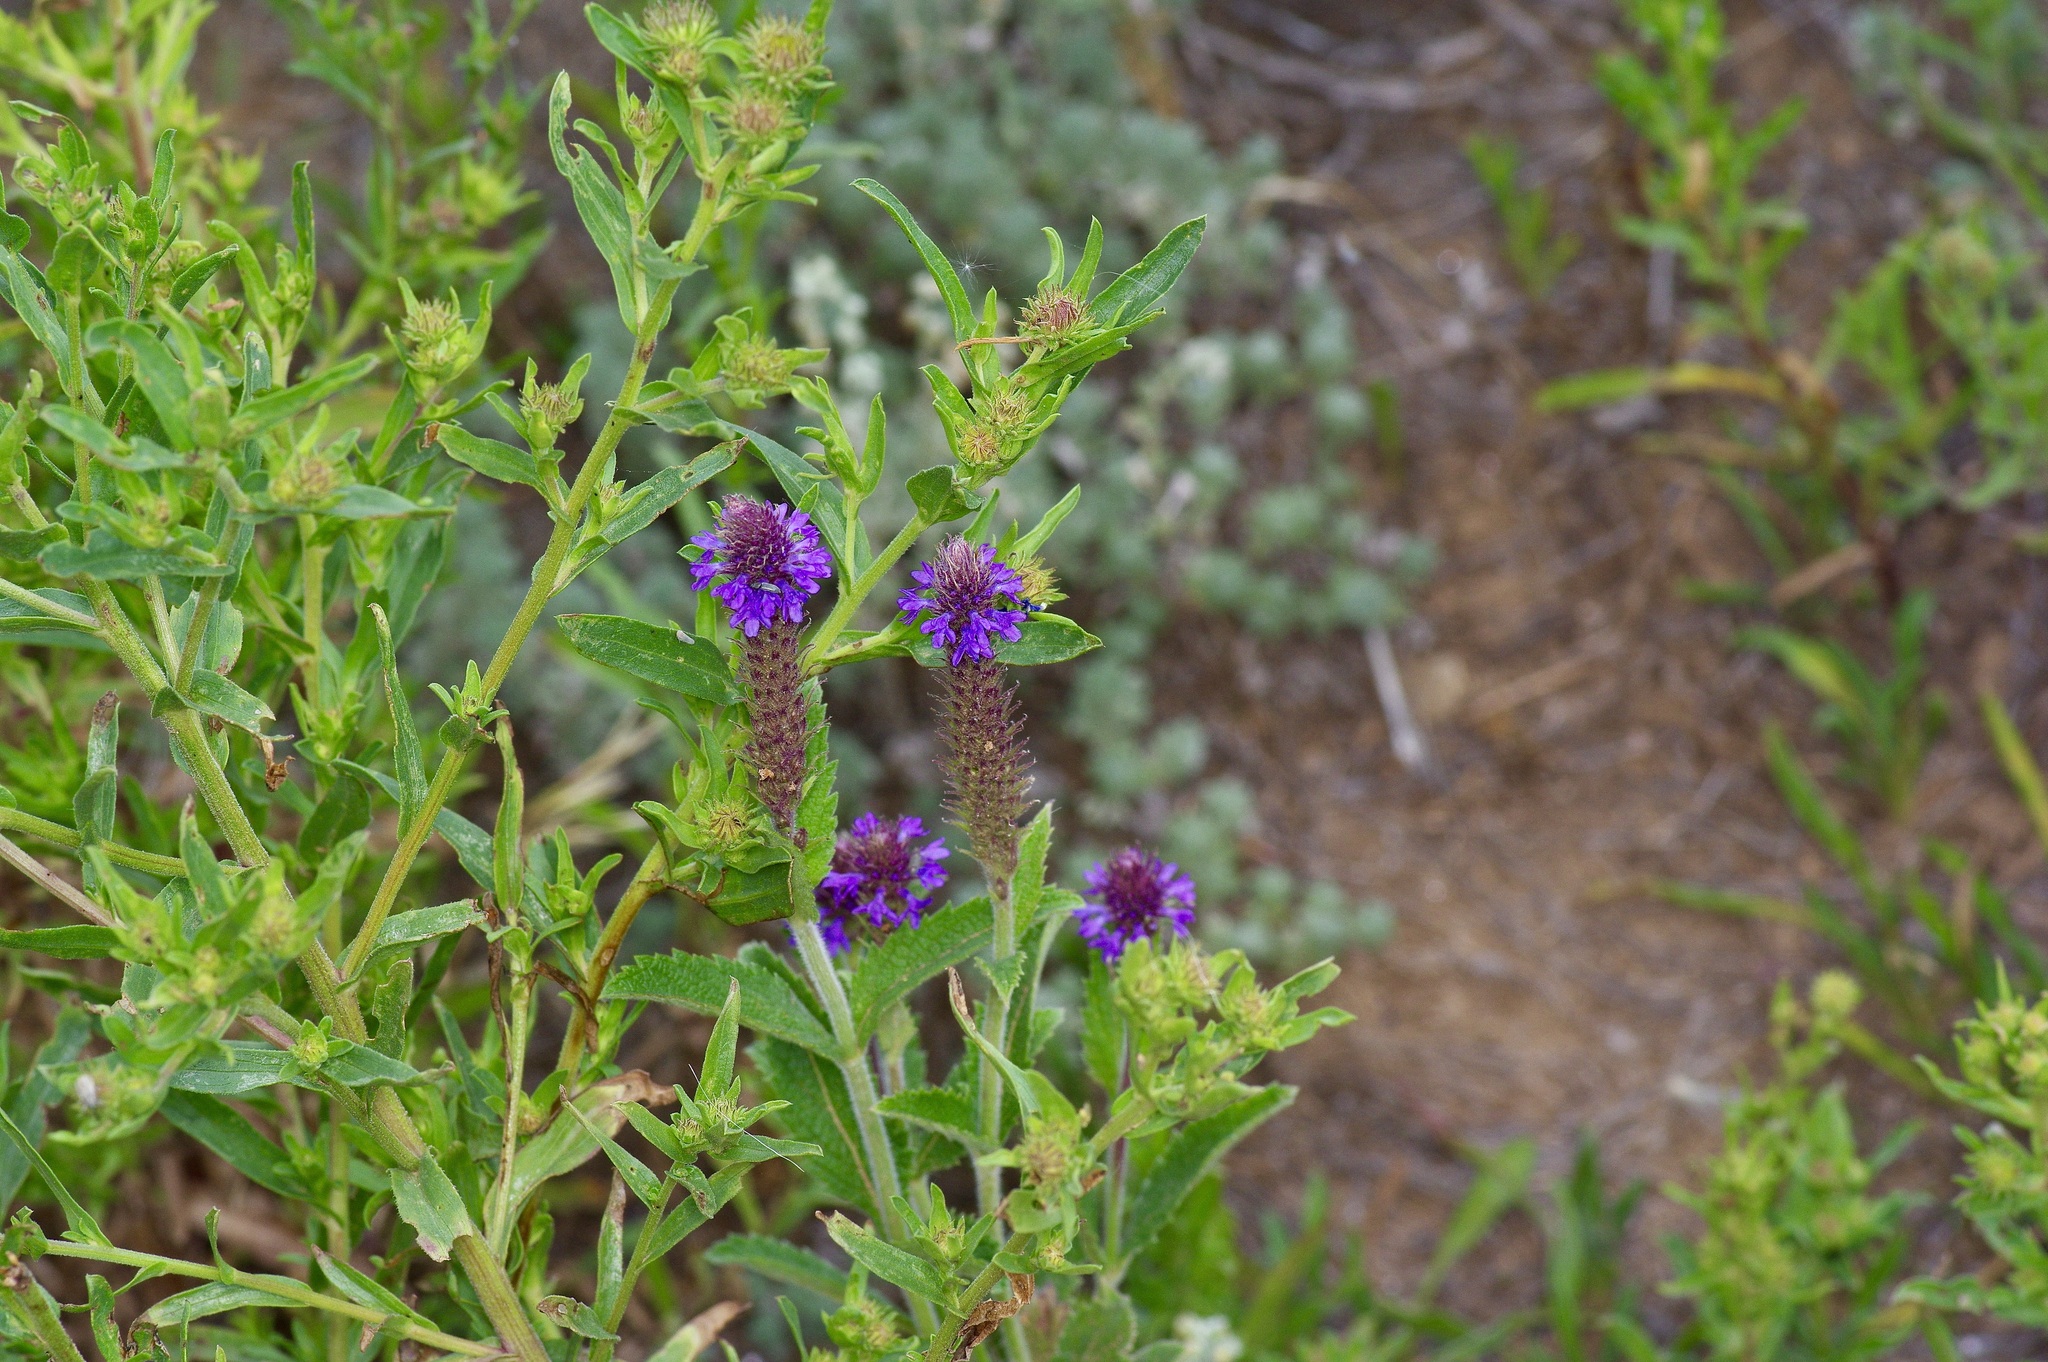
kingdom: Plantae
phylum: Tracheophyta
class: Magnoliopsida
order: Lamiales
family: Verbenaceae
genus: Verbena
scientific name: Verbena macdougalii
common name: New mexico vervain
